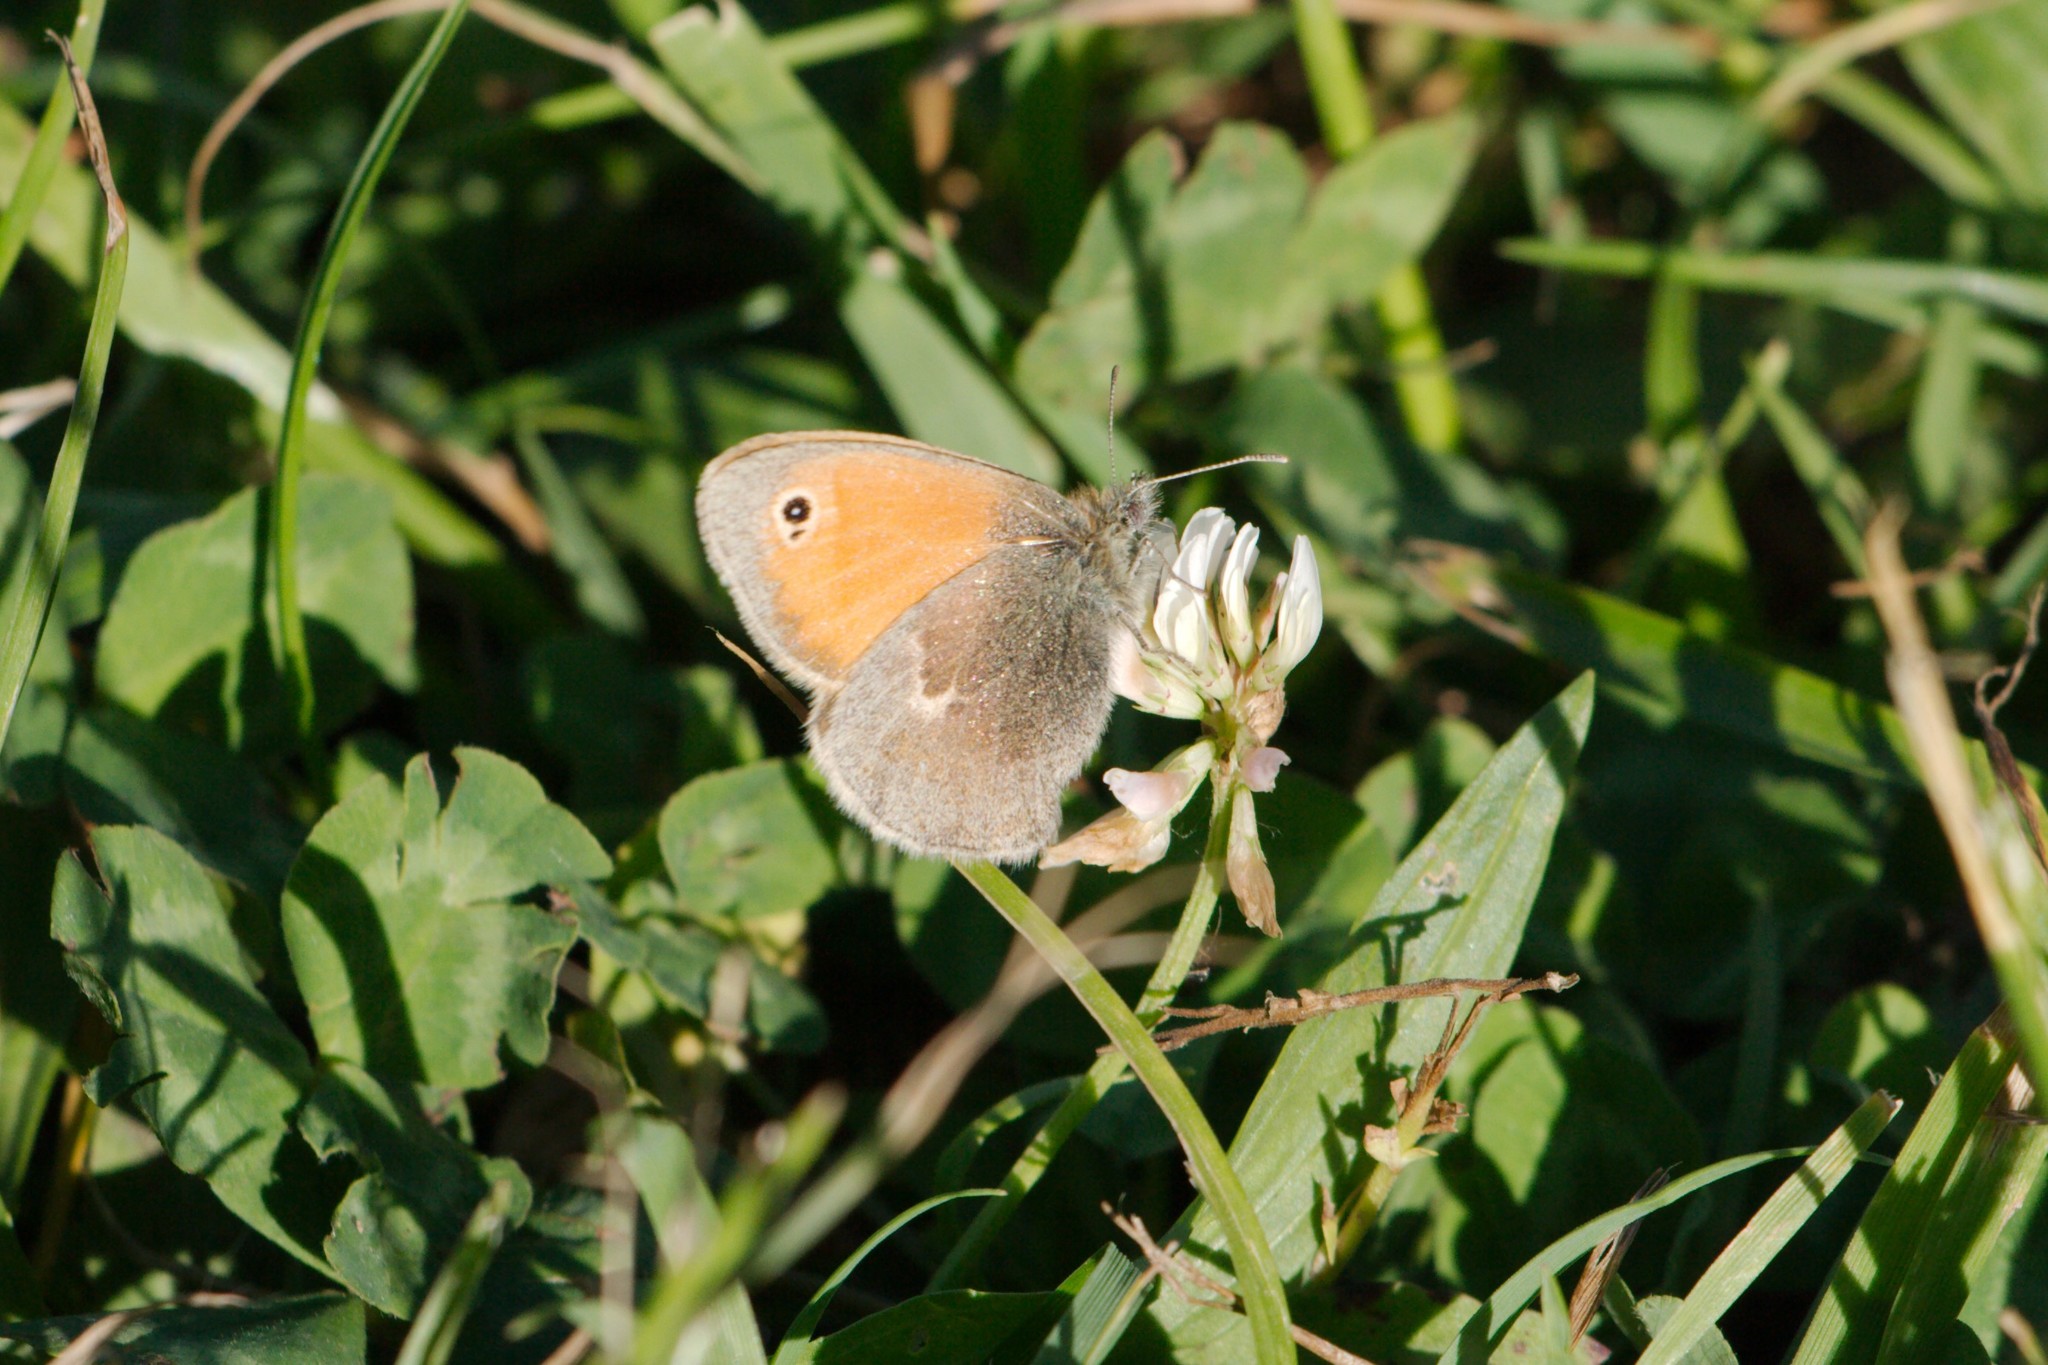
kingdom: Animalia
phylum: Arthropoda
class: Insecta
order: Lepidoptera
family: Nymphalidae
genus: Coenonympha
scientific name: Coenonympha pamphilus
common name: Small heath
